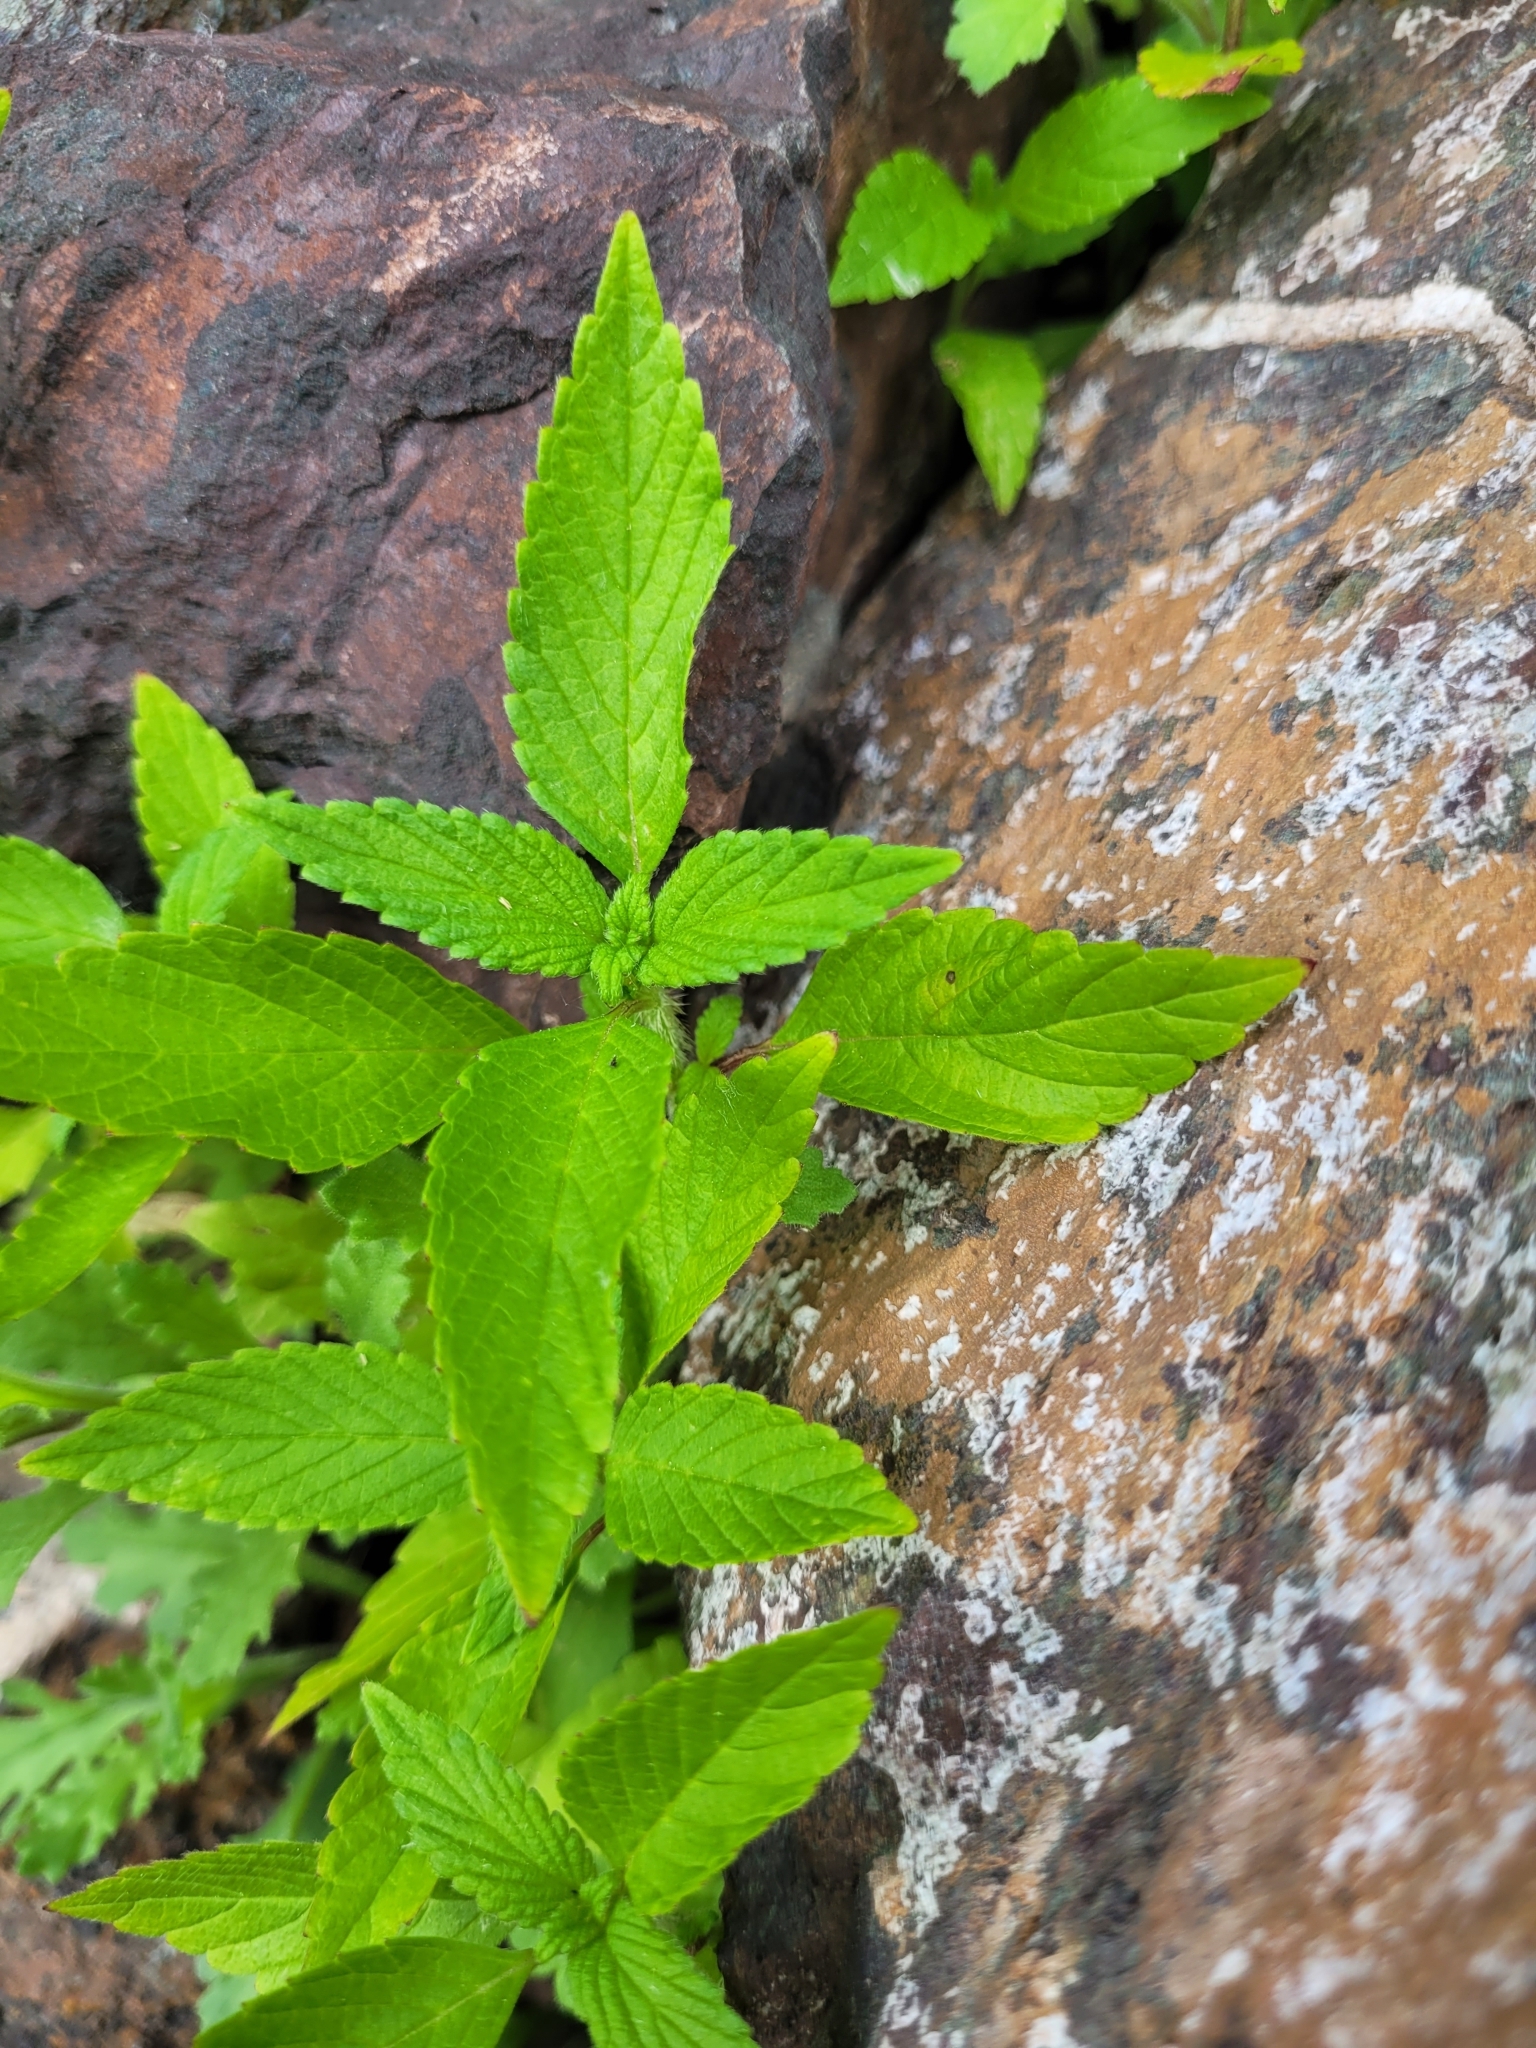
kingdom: Plantae
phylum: Tracheophyta
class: Magnoliopsida
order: Lamiales
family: Lamiaceae
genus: Galeopsis
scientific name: Galeopsis
